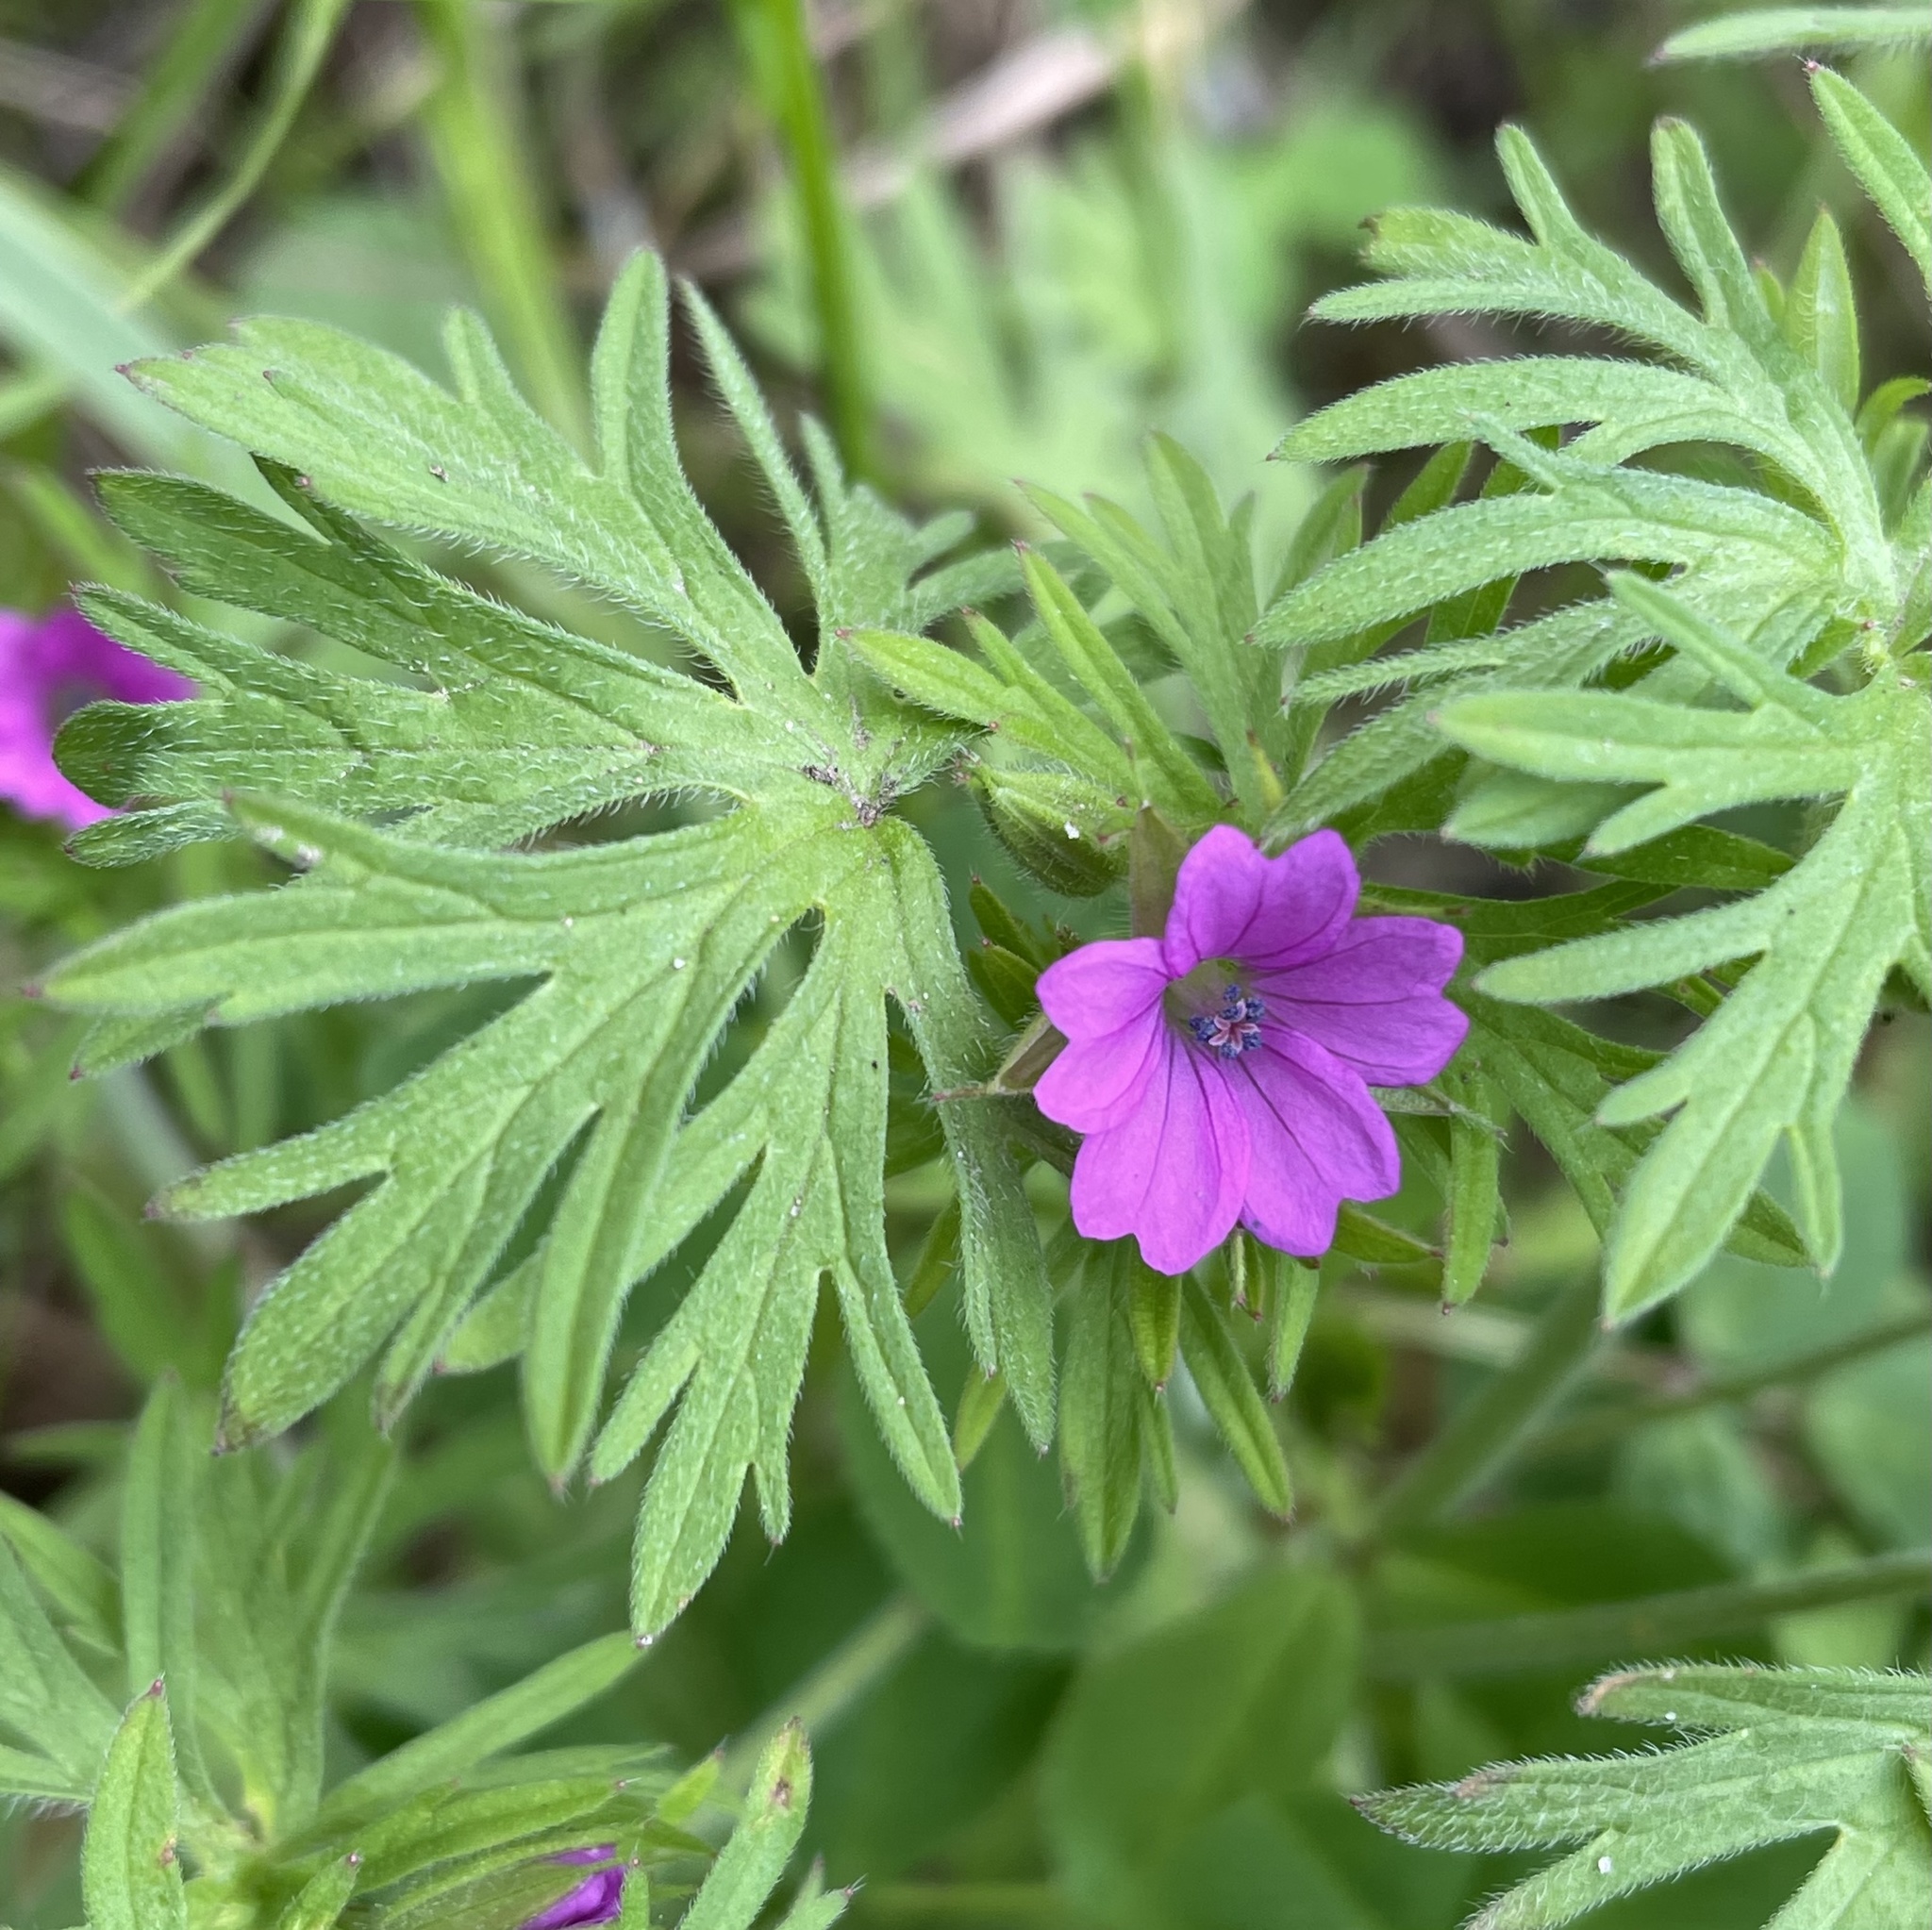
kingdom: Plantae
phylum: Tracheophyta
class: Magnoliopsida
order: Geraniales
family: Geraniaceae
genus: Geranium
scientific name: Geranium dissectum
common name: Cut-leaved crane's-bill
